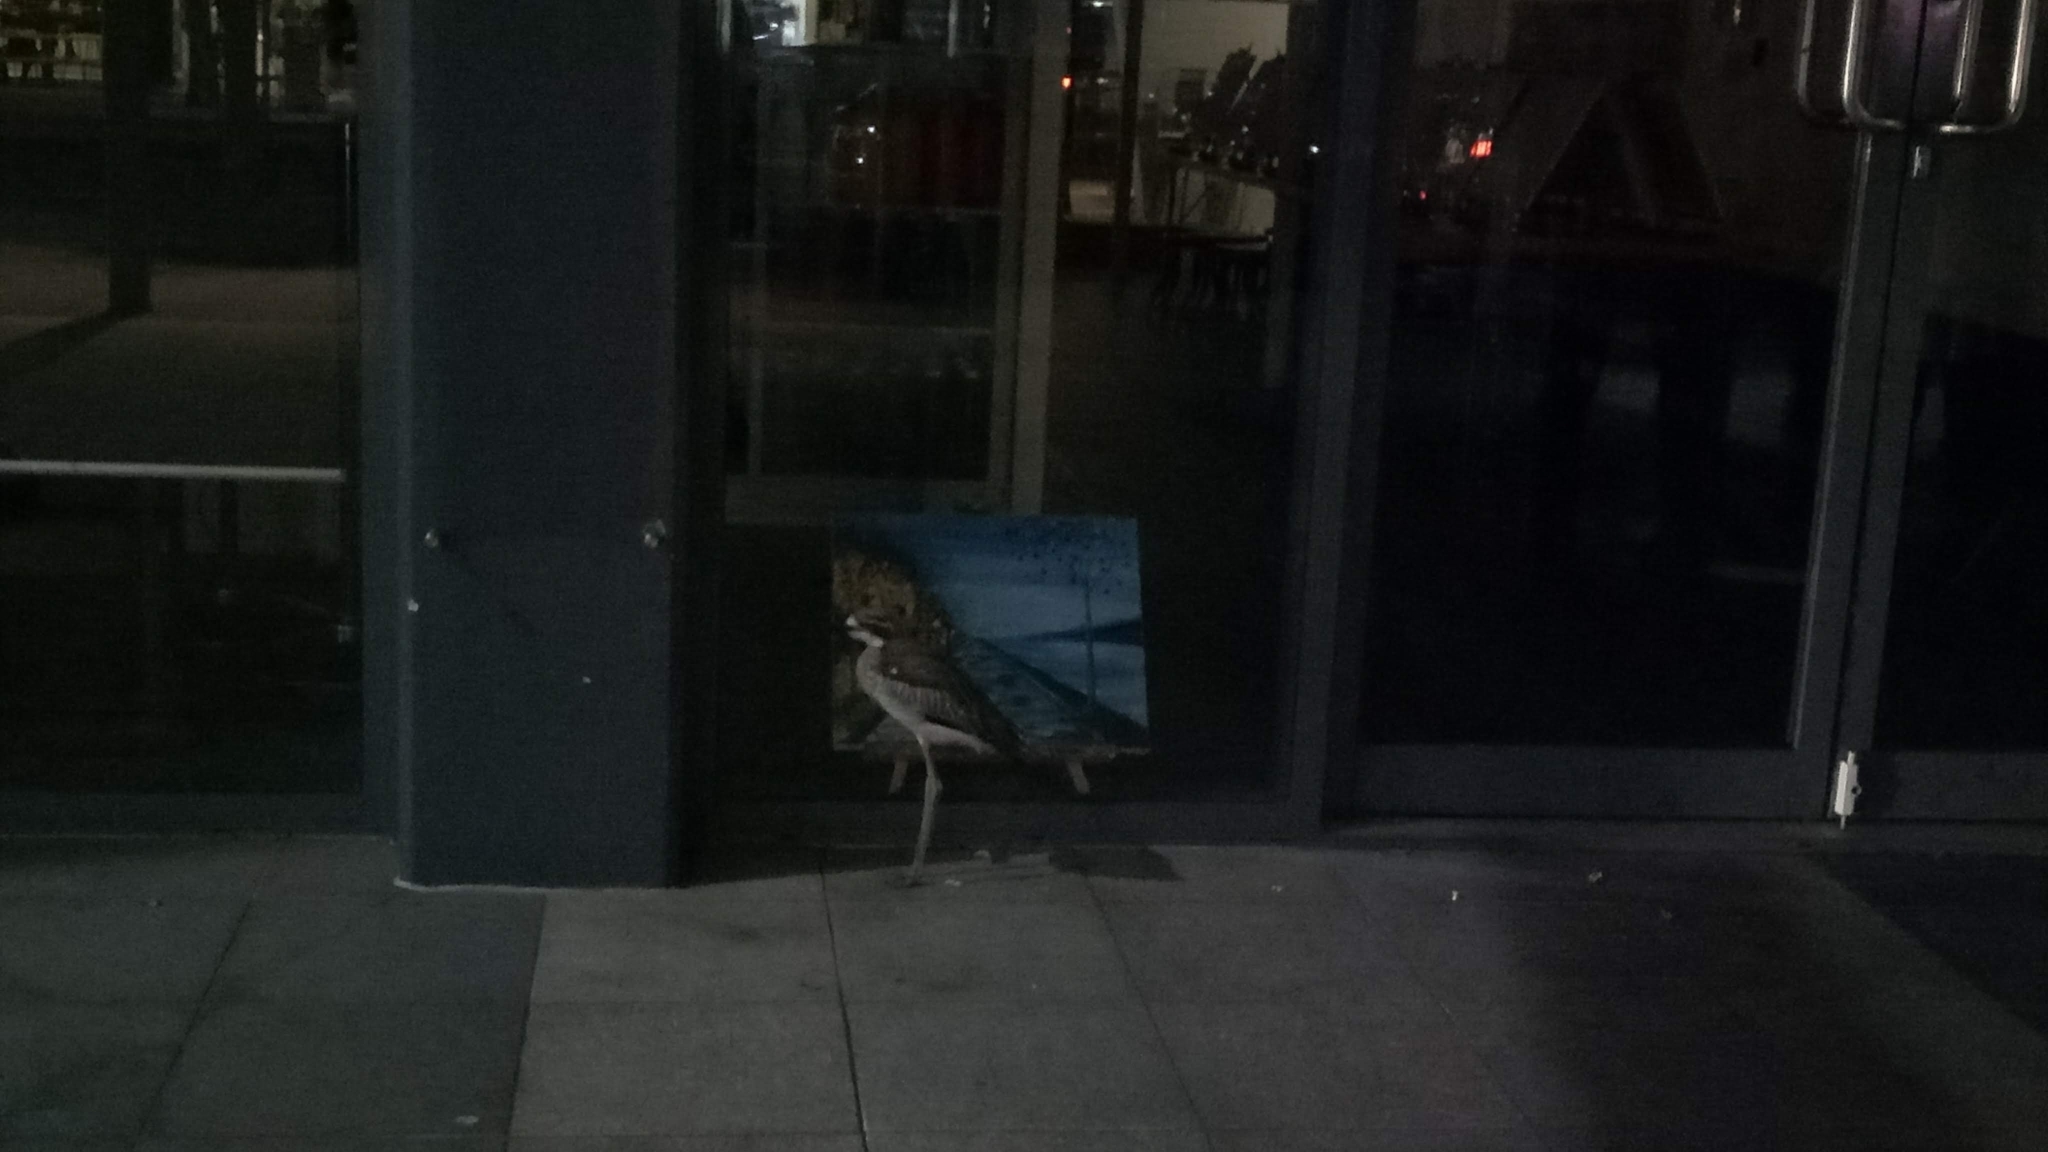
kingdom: Animalia
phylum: Chordata
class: Aves
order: Charadriiformes
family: Burhinidae
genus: Burhinus
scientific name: Burhinus grallarius
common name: Bush stone-curlew
